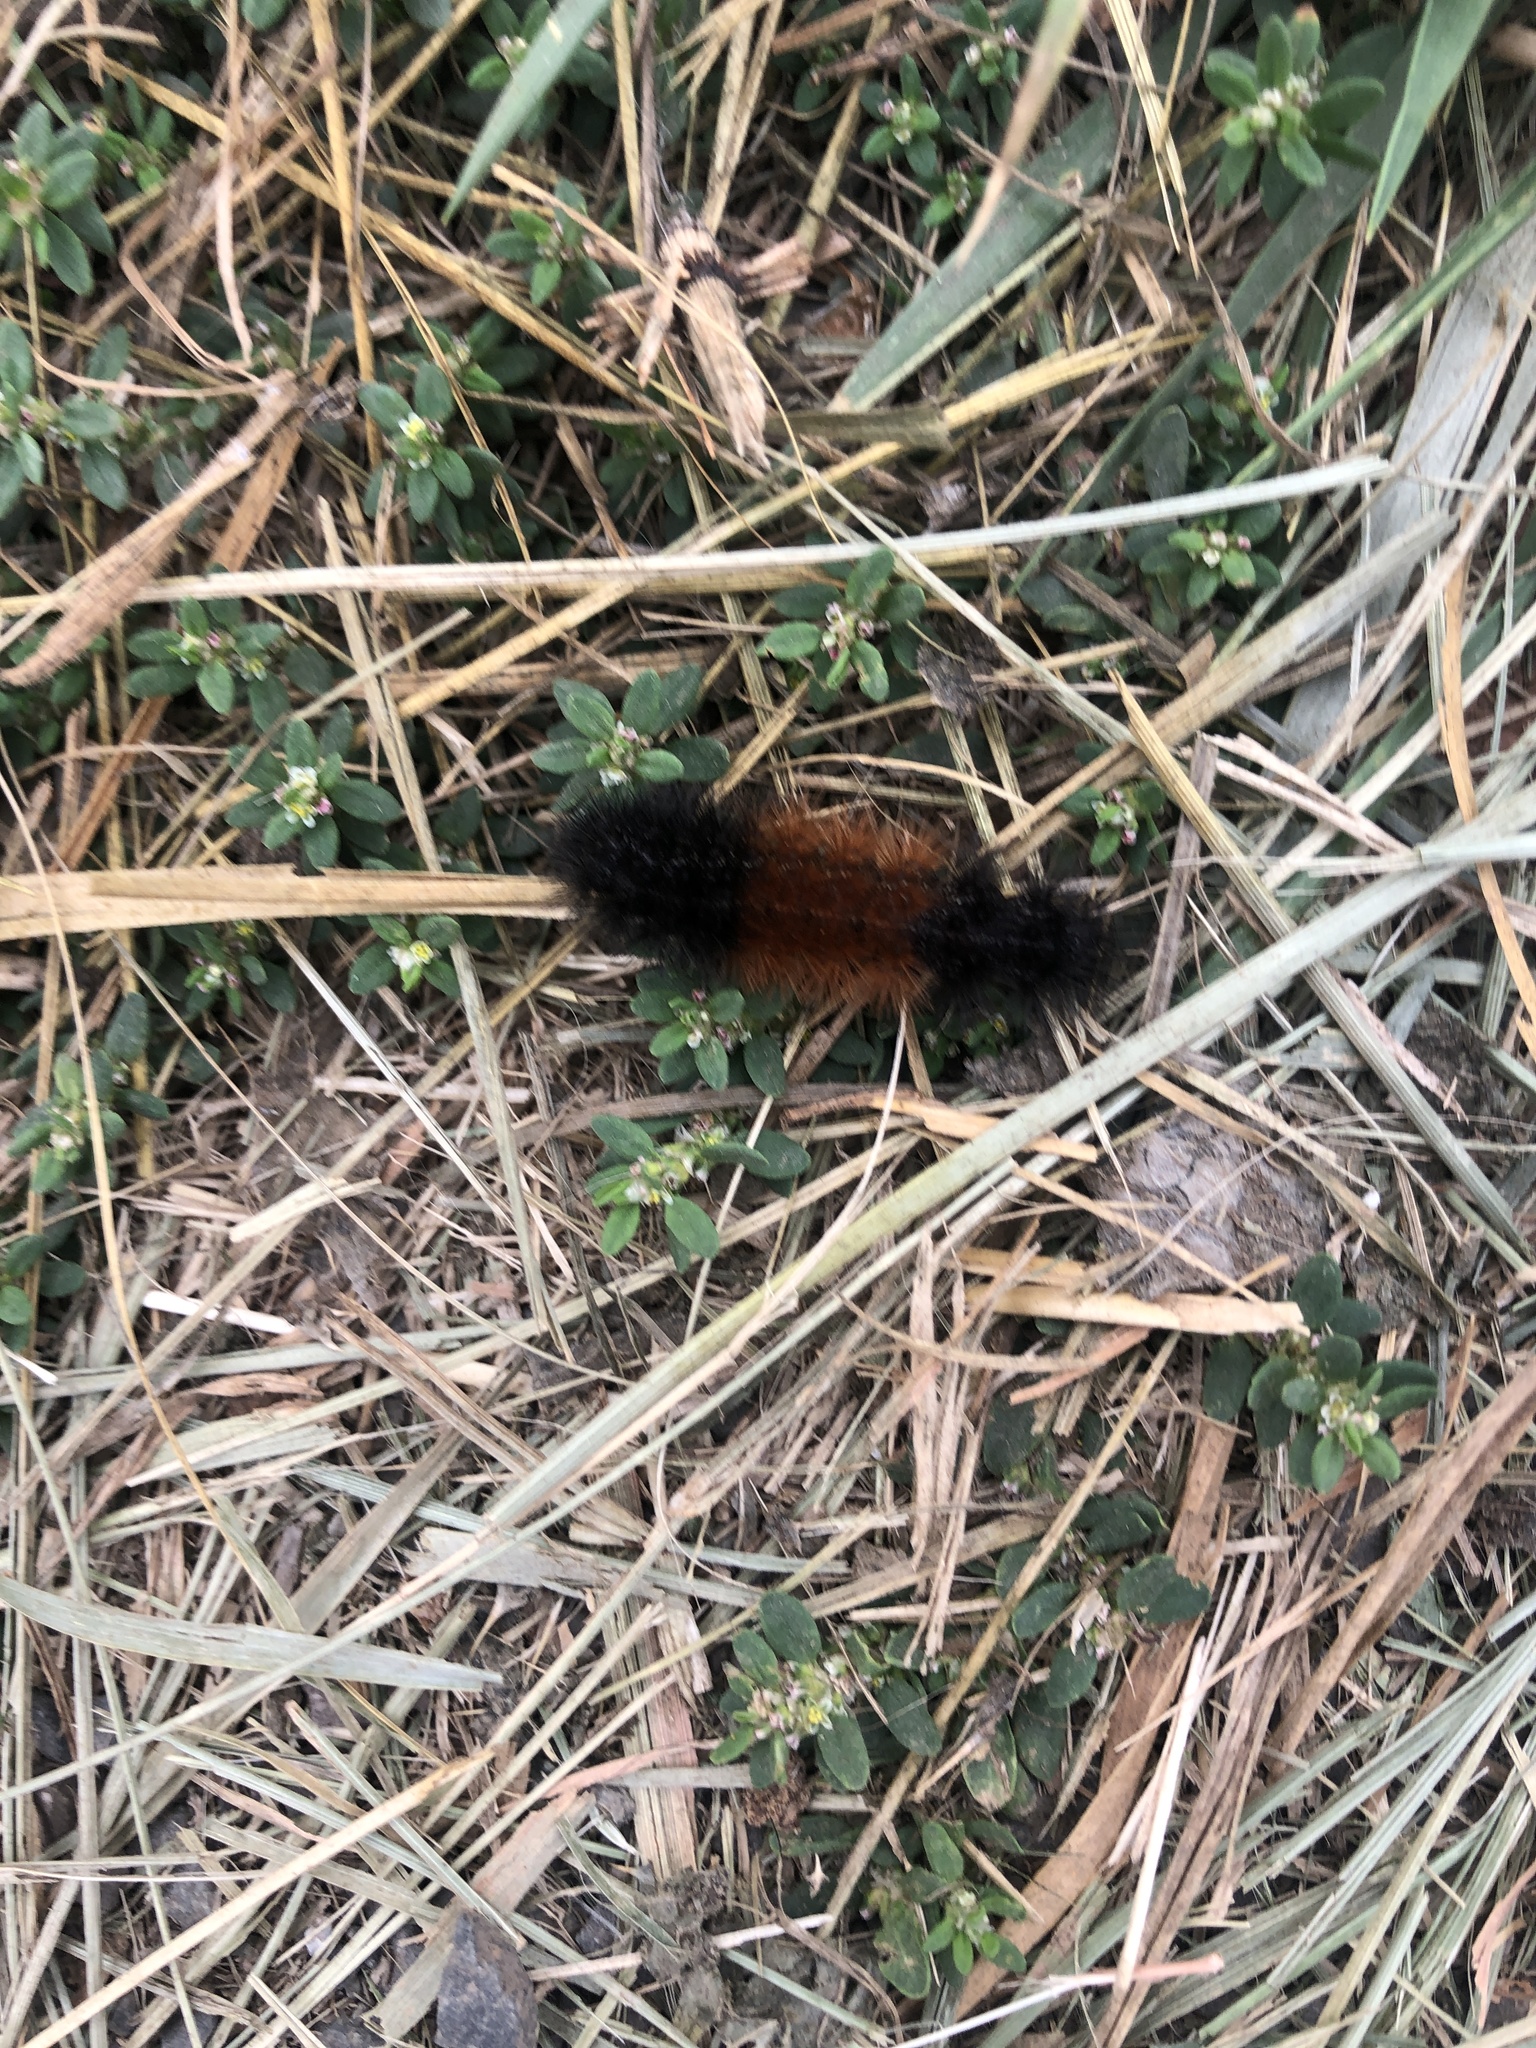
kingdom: Animalia
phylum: Arthropoda
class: Insecta
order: Lepidoptera
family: Erebidae
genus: Pyrrharctia
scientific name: Pyrrharctia isabella
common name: Isabella tiger moth
